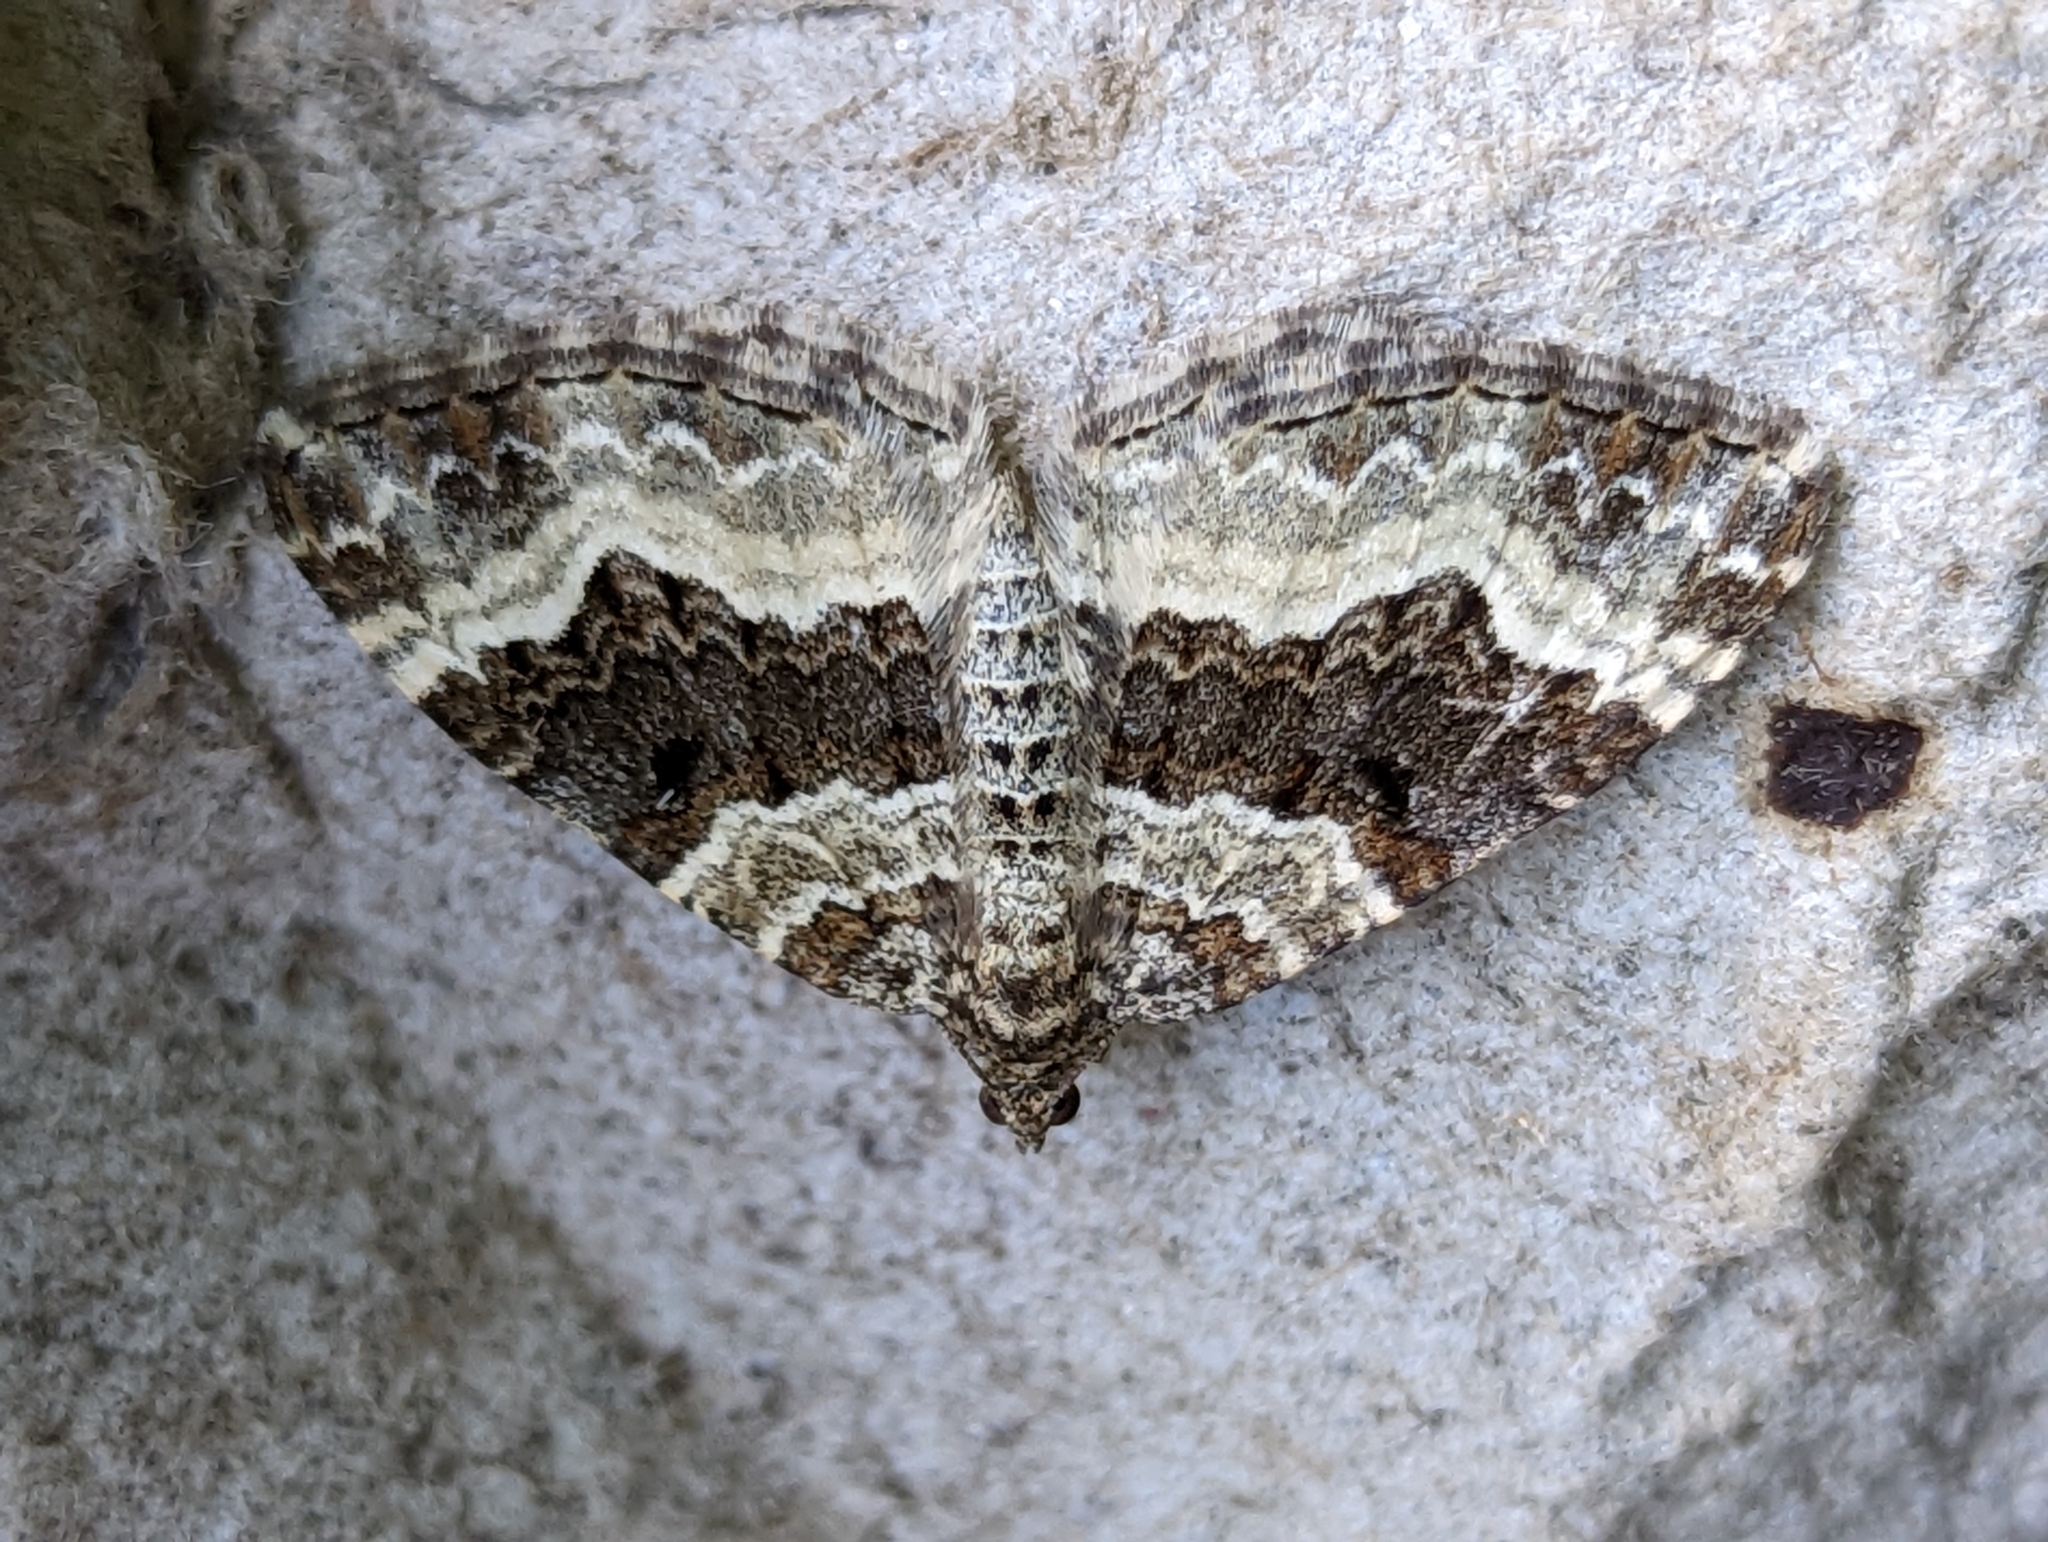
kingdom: Animalia
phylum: Arthropoda
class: Insecta
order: Lepidoptera
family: Geometridae
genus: Epirrhoe
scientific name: Epirrhoe alternata
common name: Common carpet
